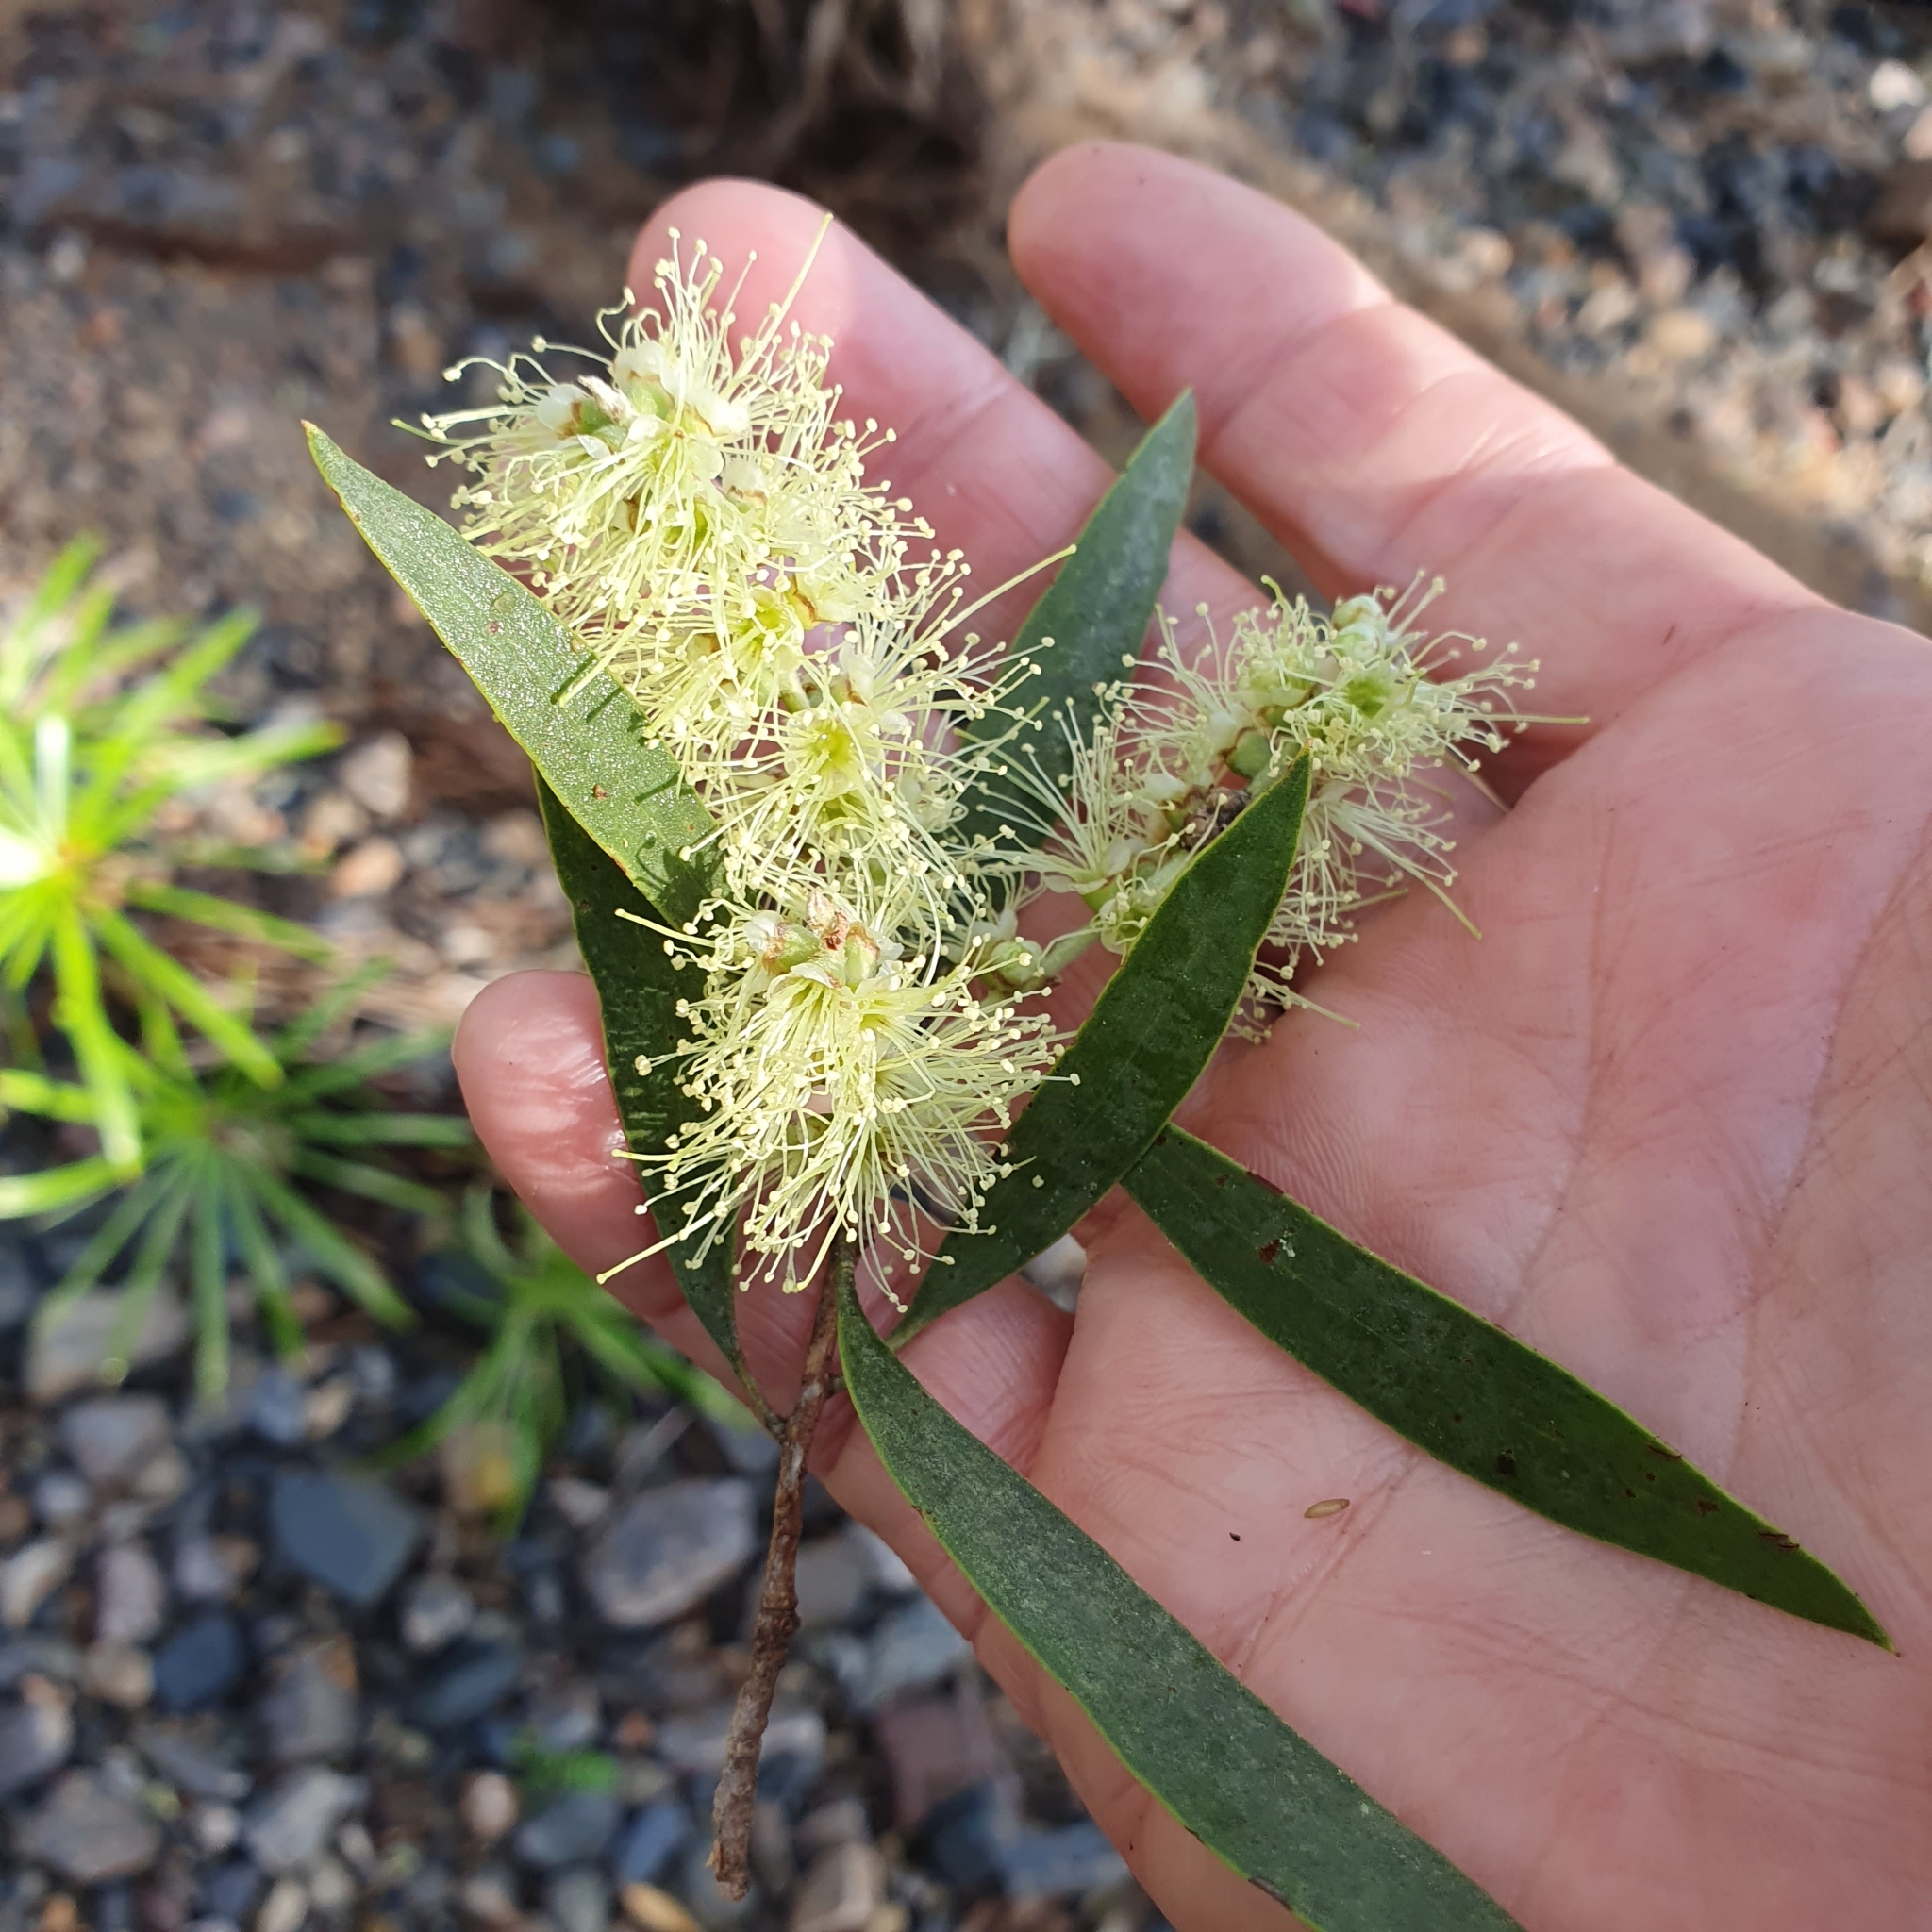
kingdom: Plantae
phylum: Tracheophyta
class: Magnoliopsida
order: Myrtales
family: Myrtaceae
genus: Melaleuca
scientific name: Melaleuca fluviatilis
